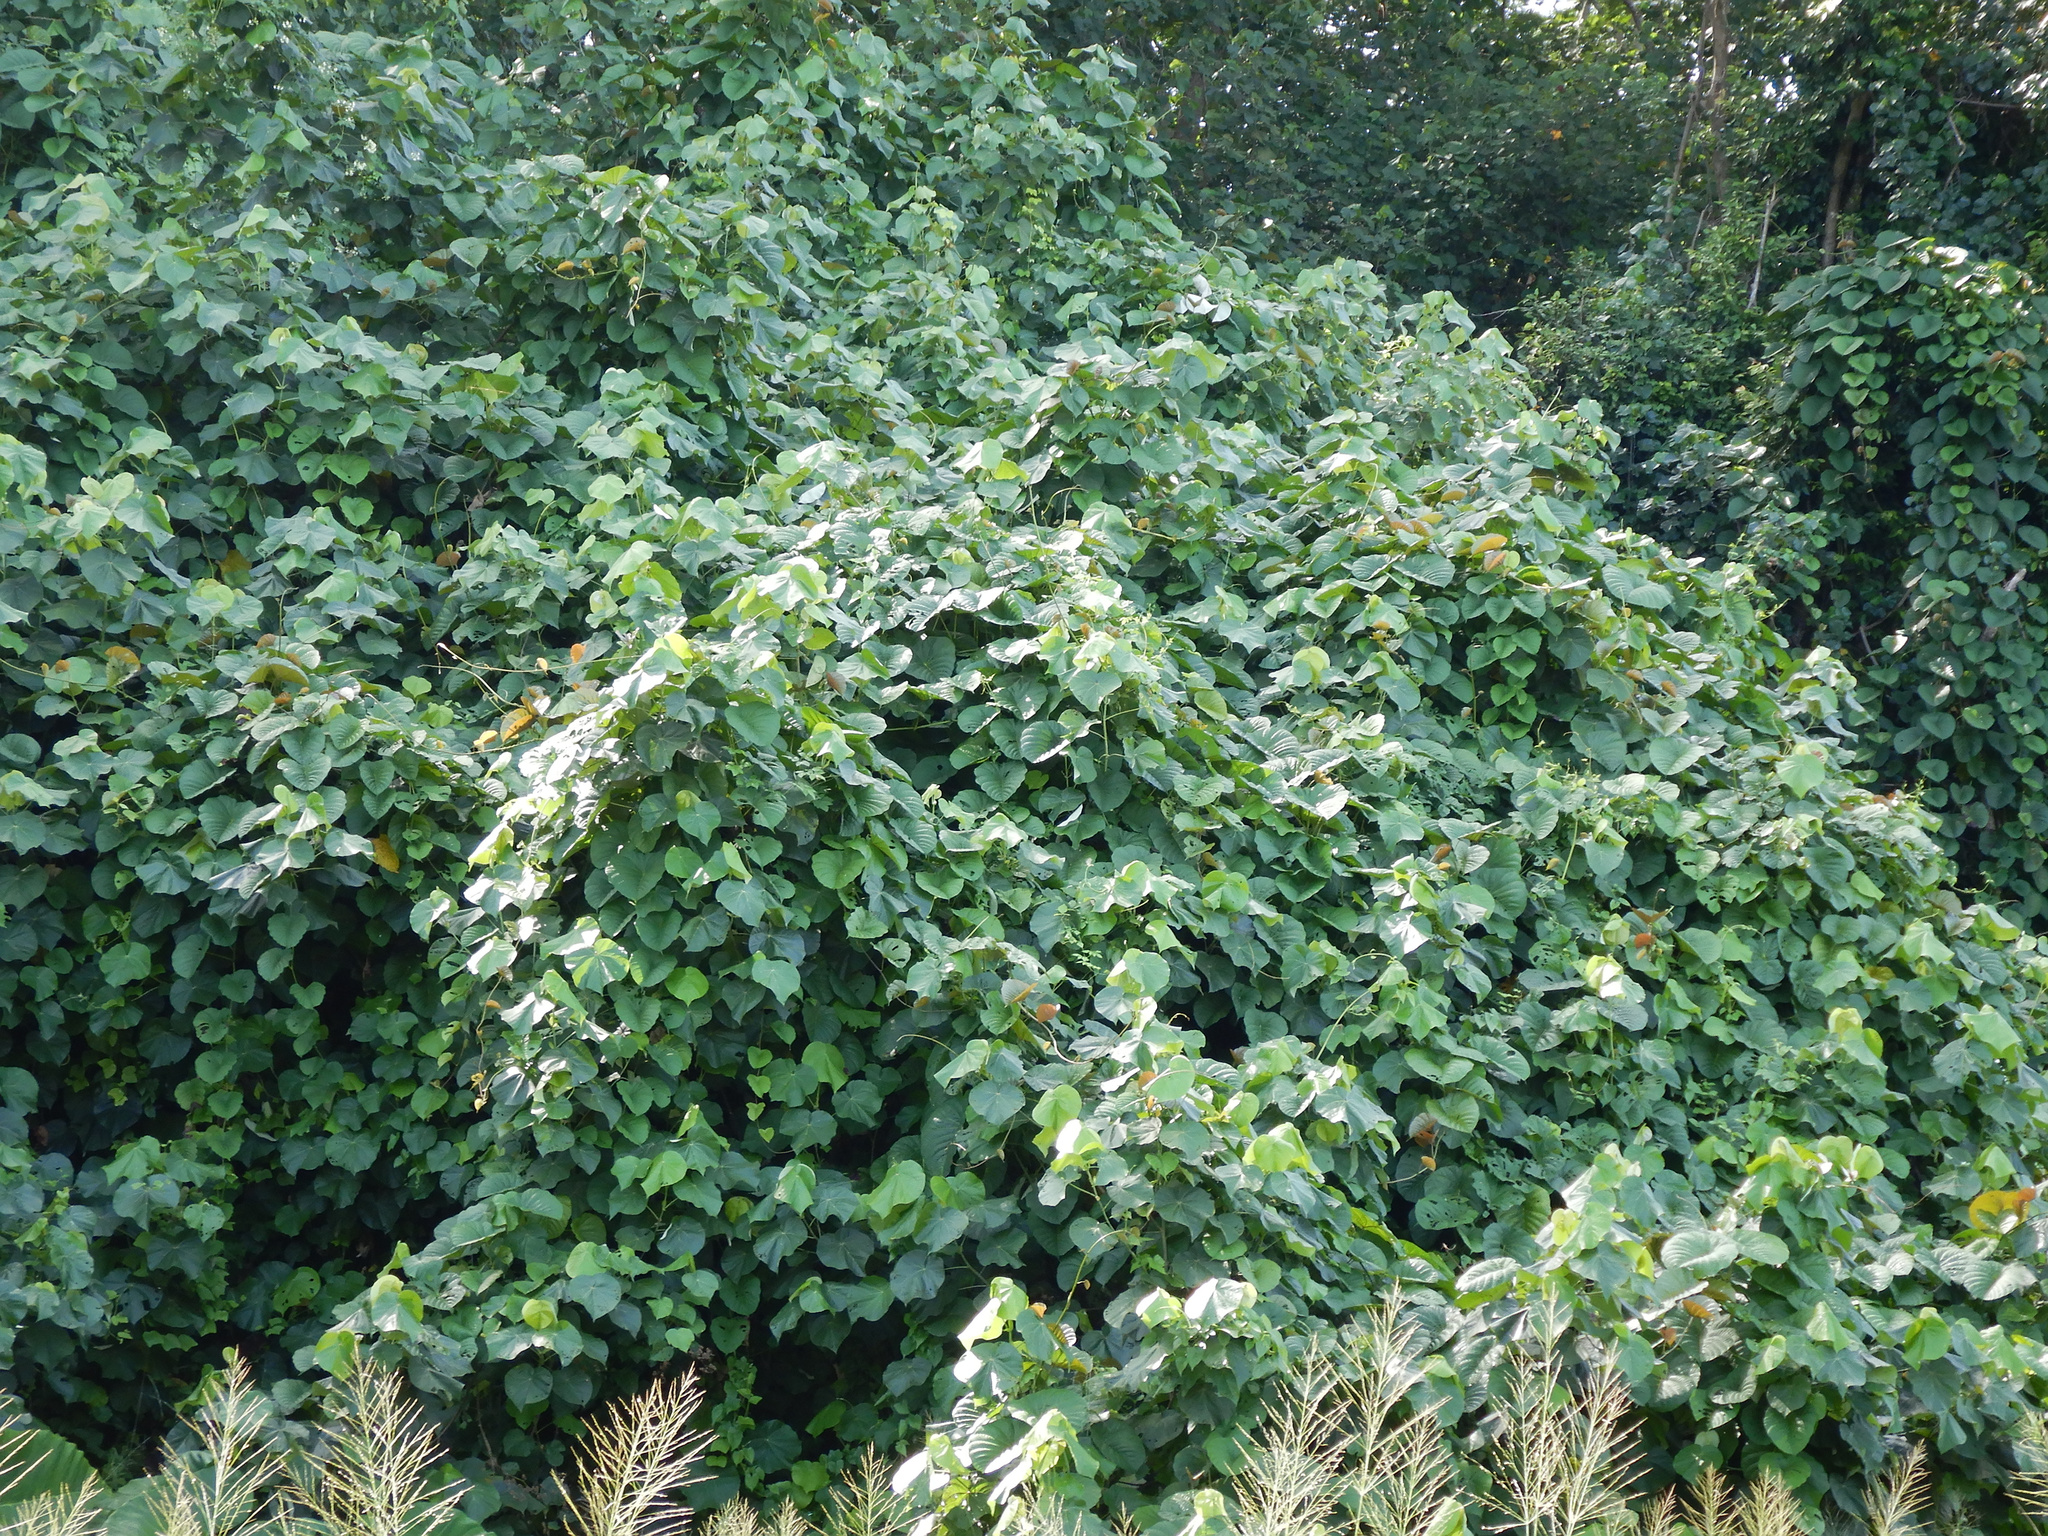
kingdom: Plantae
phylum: Tracheophyta
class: Magnoliopsida
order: Malvales
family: Malvaceae
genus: Talipariti
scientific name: Talipariti tiliaceum
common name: Sea hibiscus
